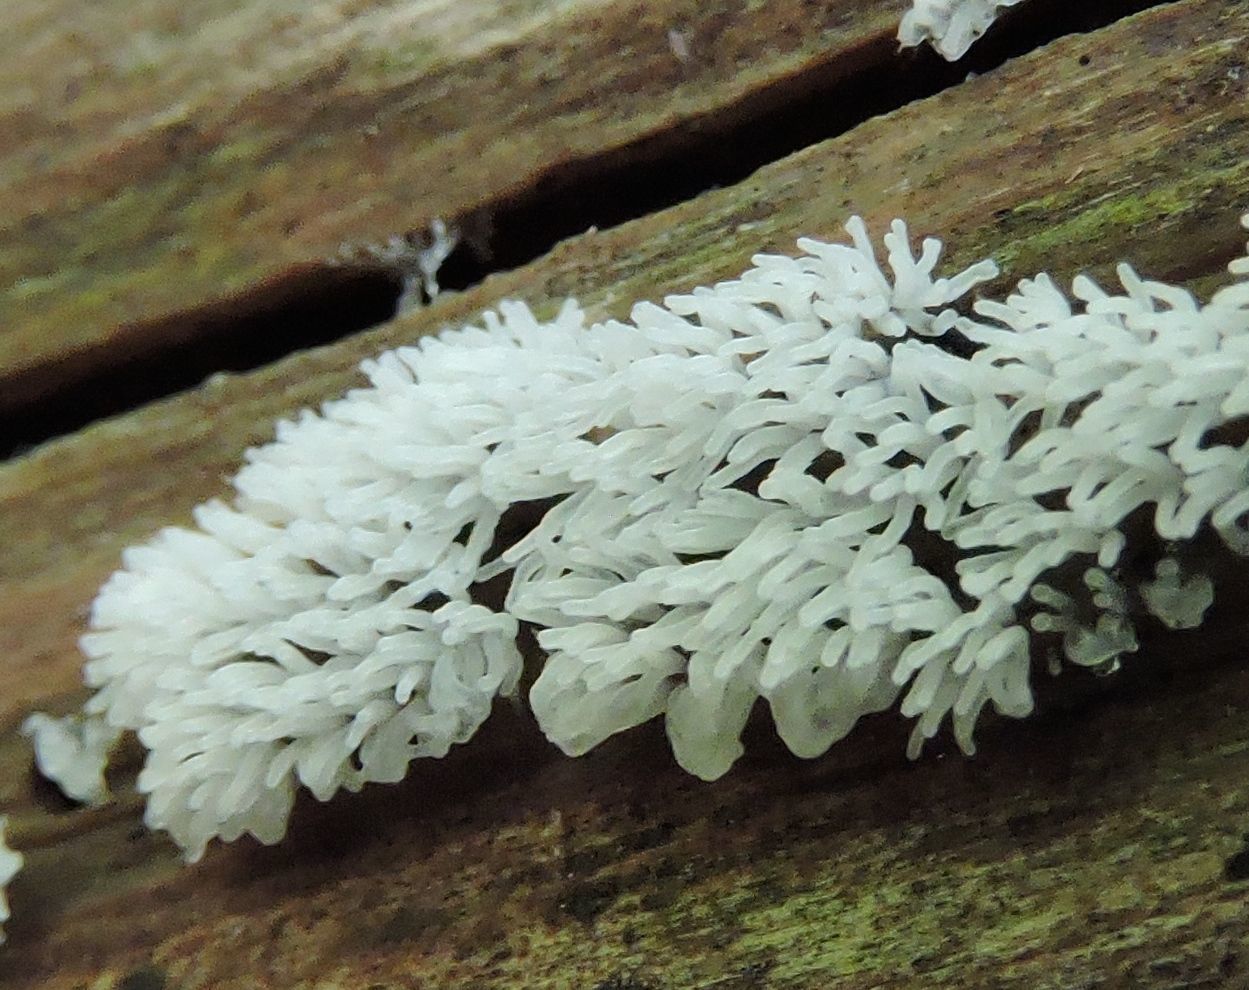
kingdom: Protozoa
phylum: Mycetozoa
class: Protosteliomycetes
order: Ceratiomyxales
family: Ceratiomyxaceae
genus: Ceratiomyxa
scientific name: Ceratiomyxa fruticulosa
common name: Honeycomb coral slime mold
